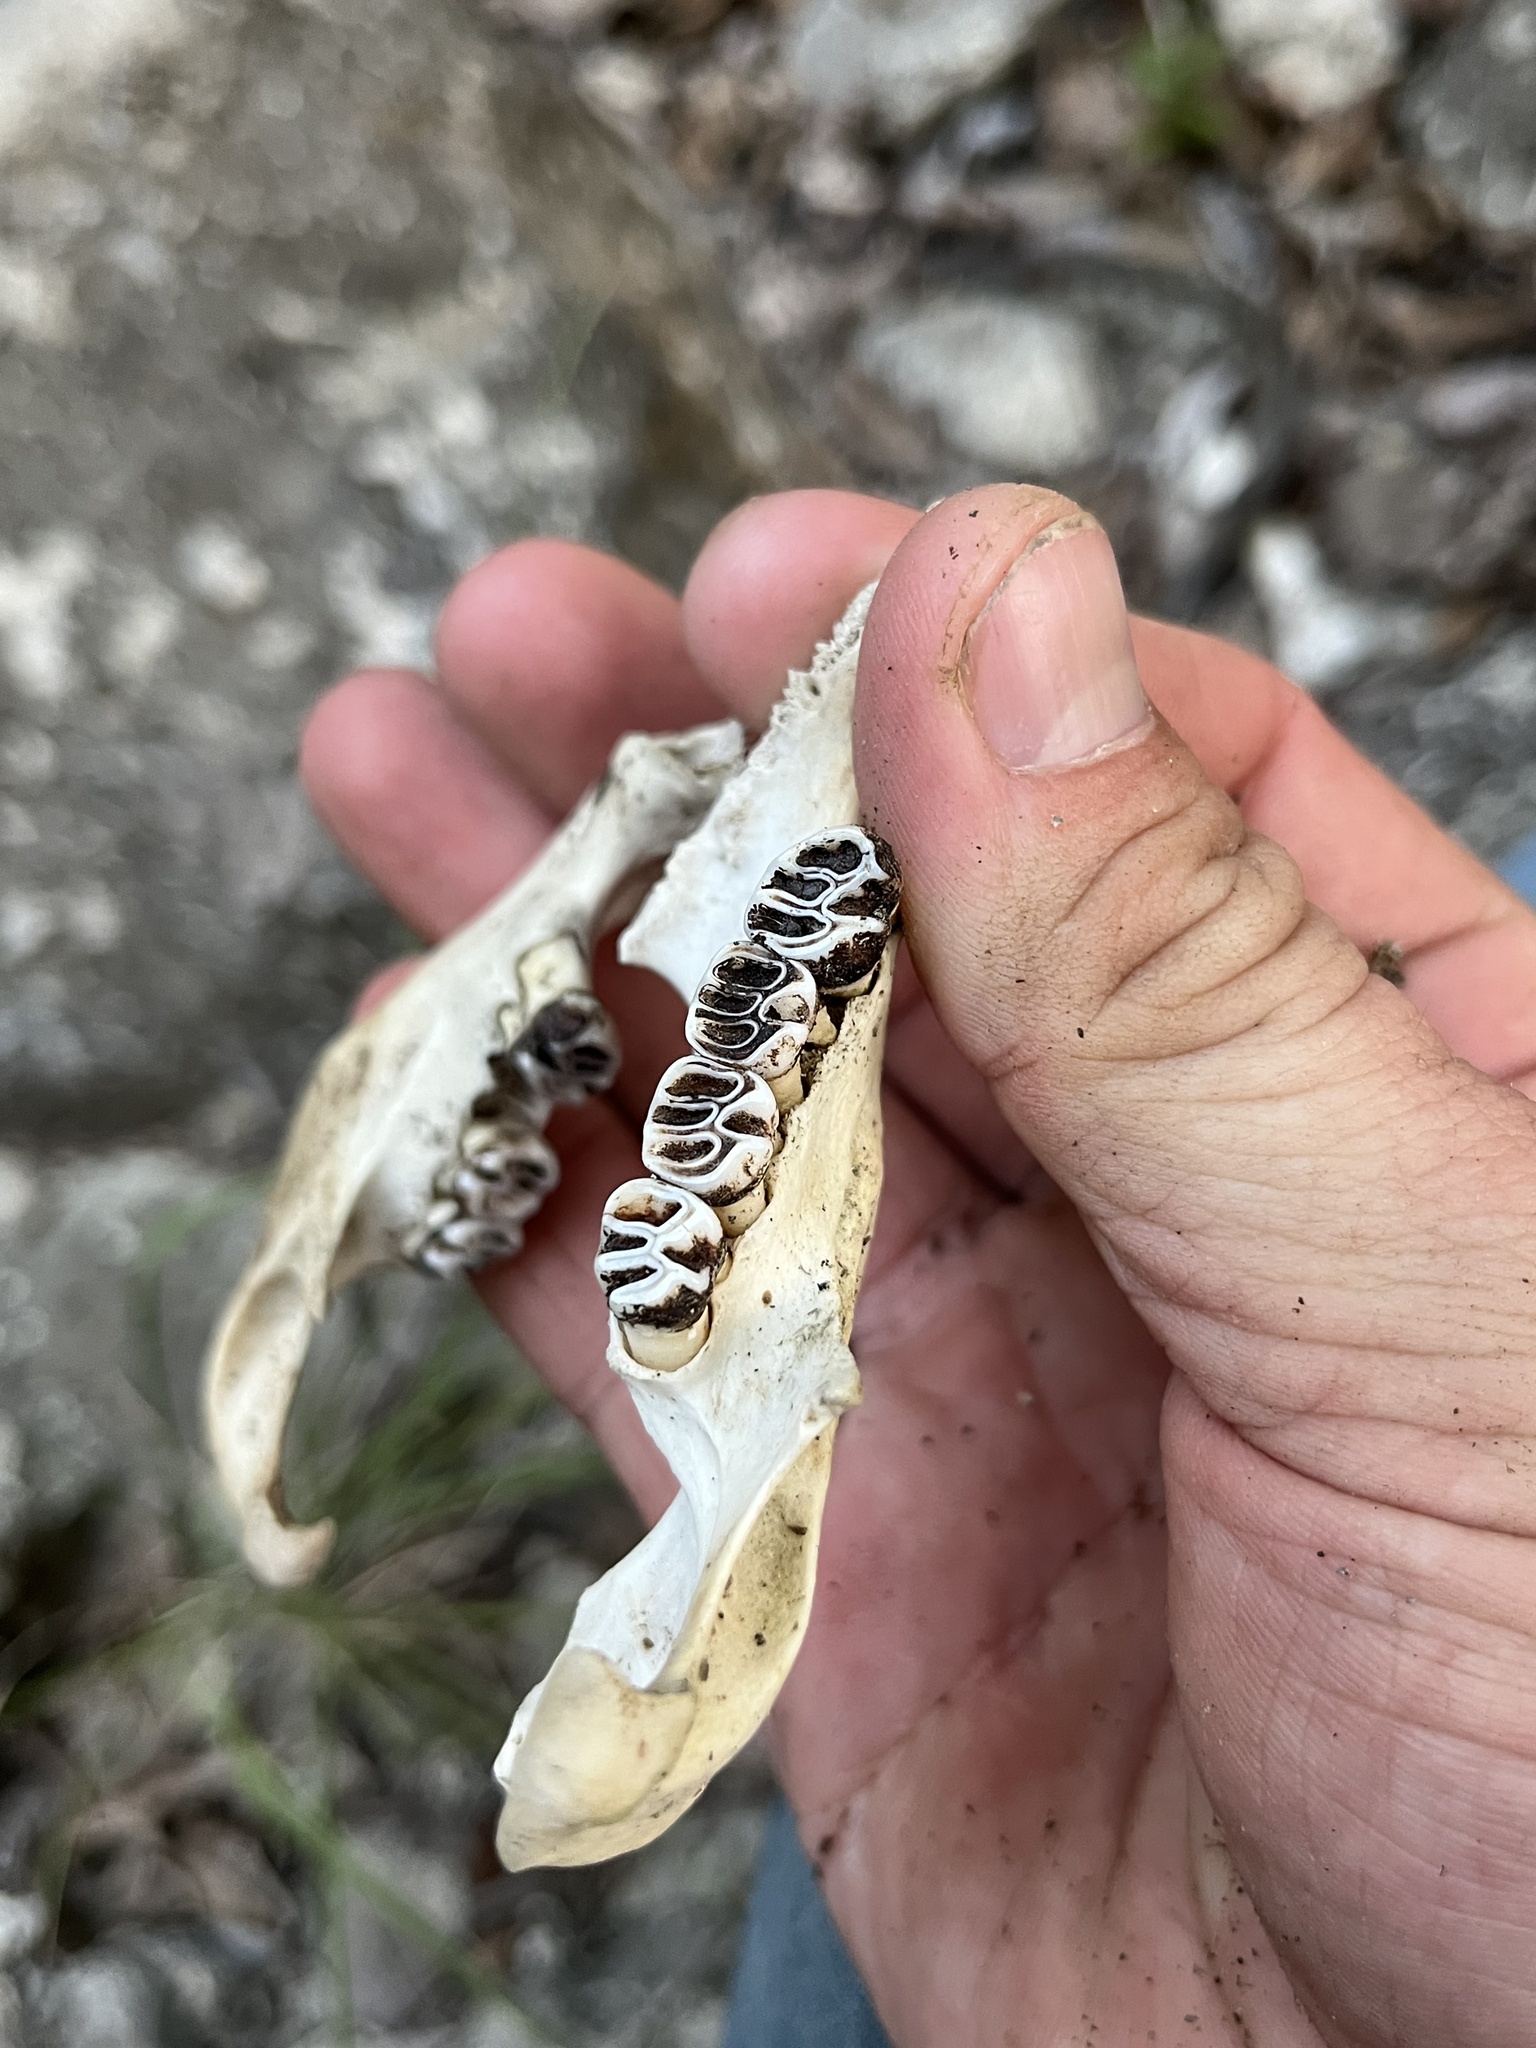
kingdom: Animalia
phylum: Chordata
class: Mammalia
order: Rodentia
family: Erethizontidae
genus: Erethizon
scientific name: Erethizon dorsatus
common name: North american porcupine
